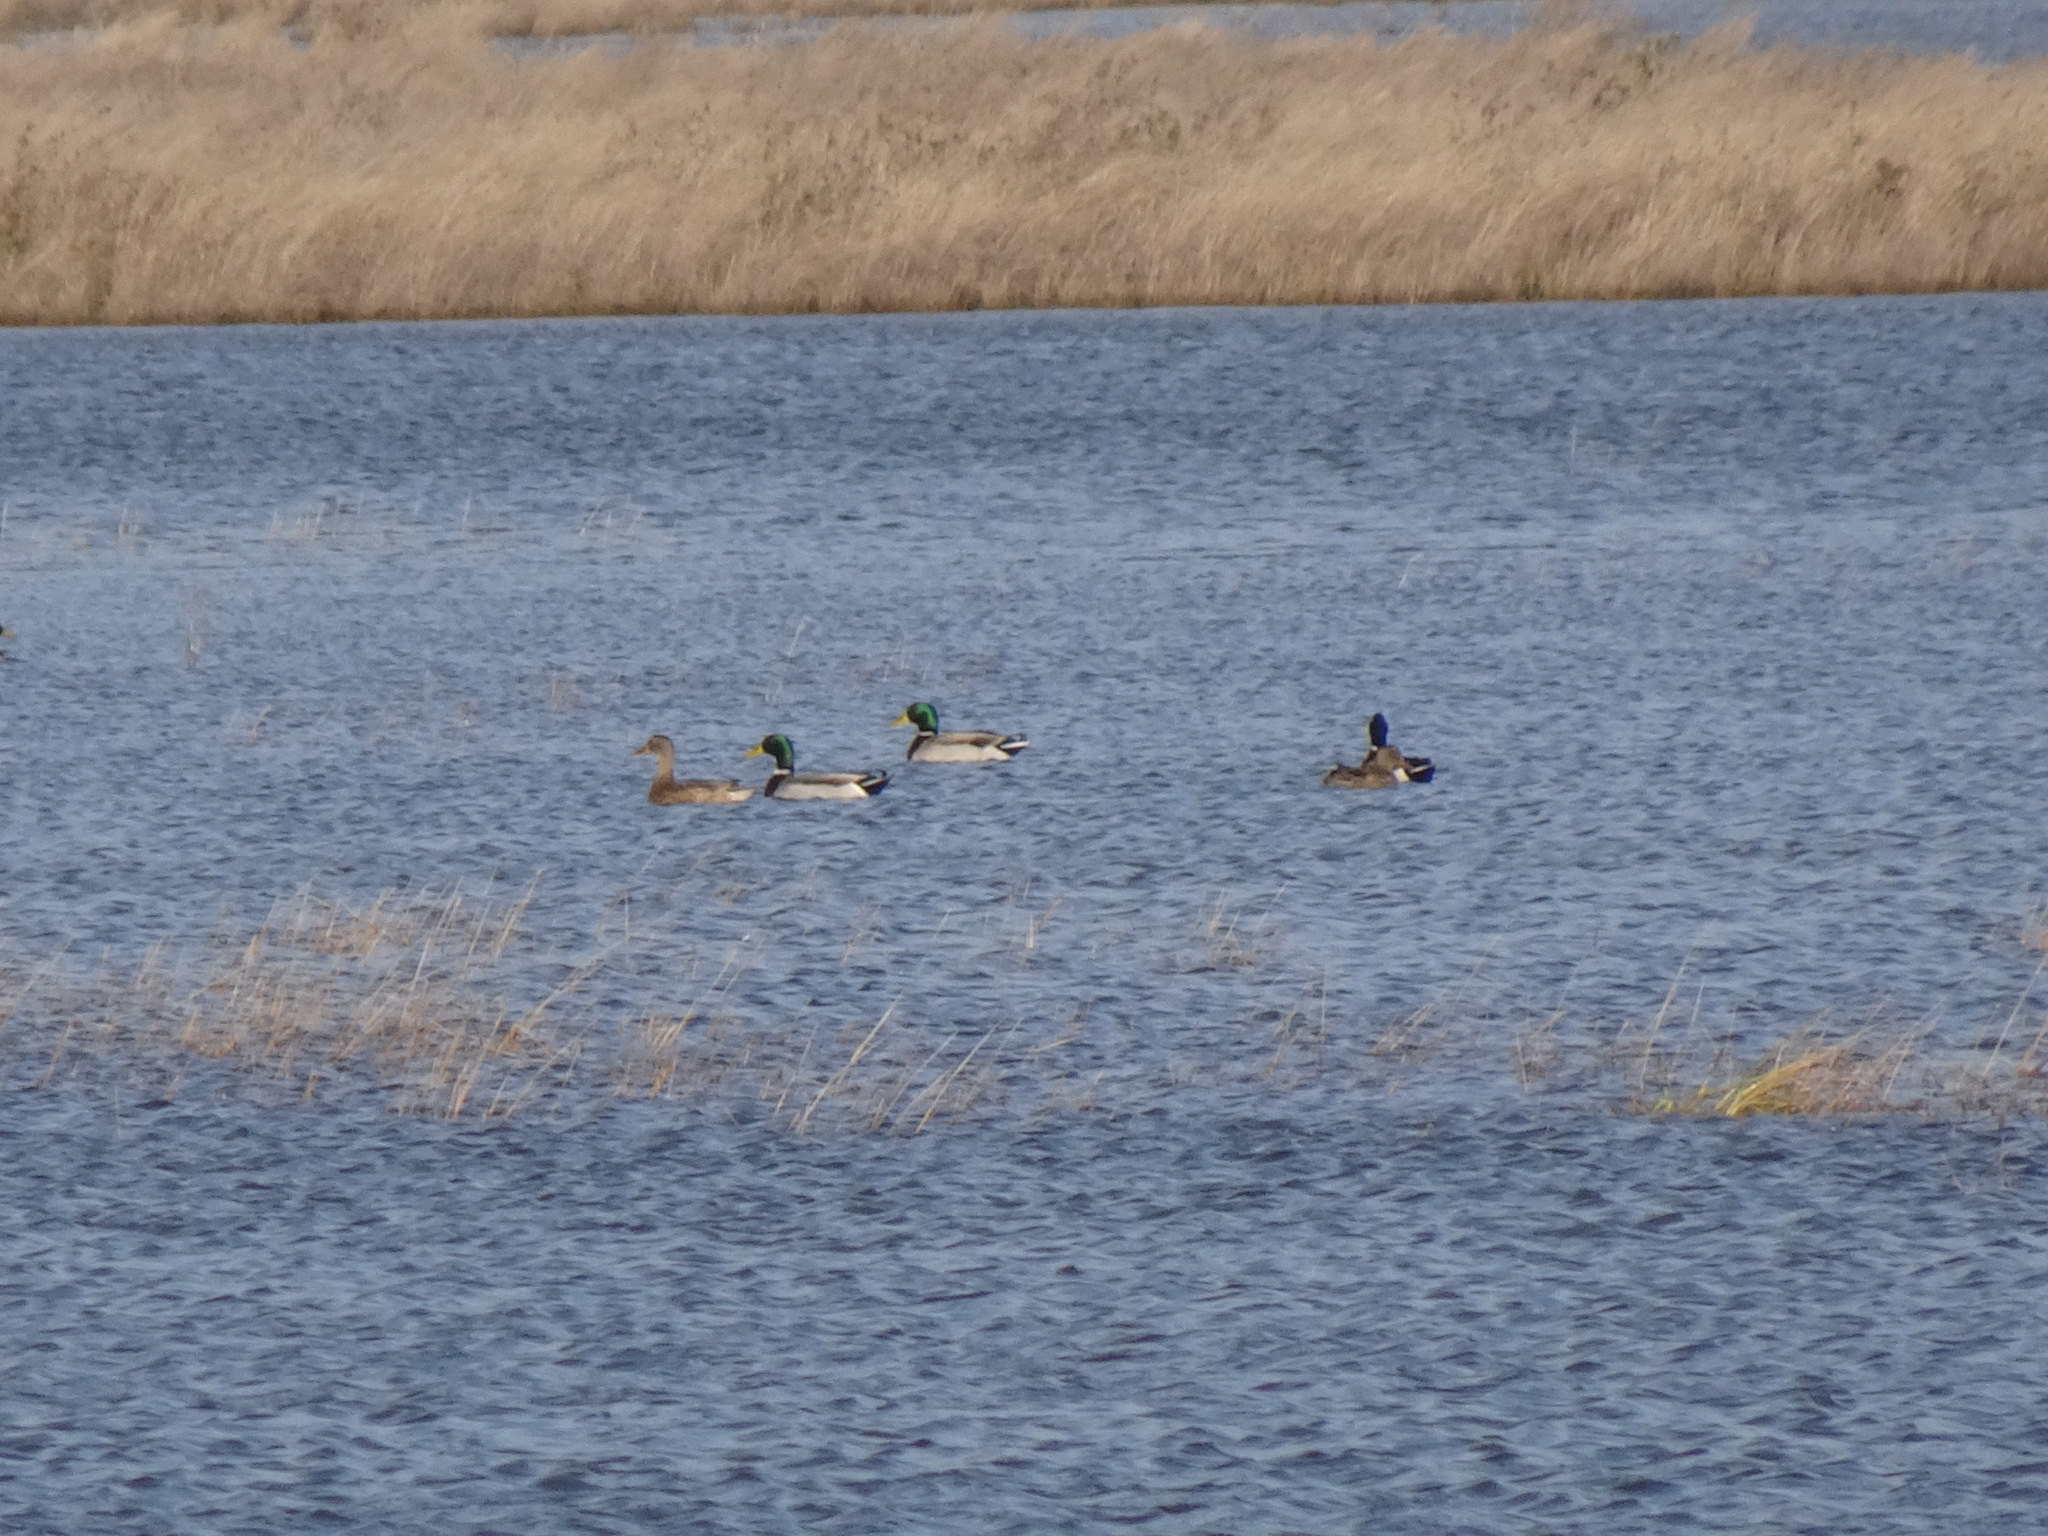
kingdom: Animalia
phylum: Chordata
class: Aves
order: Anseriformes
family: Anatidae
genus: Anas
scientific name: Anas platyrhynchos
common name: Mallard
